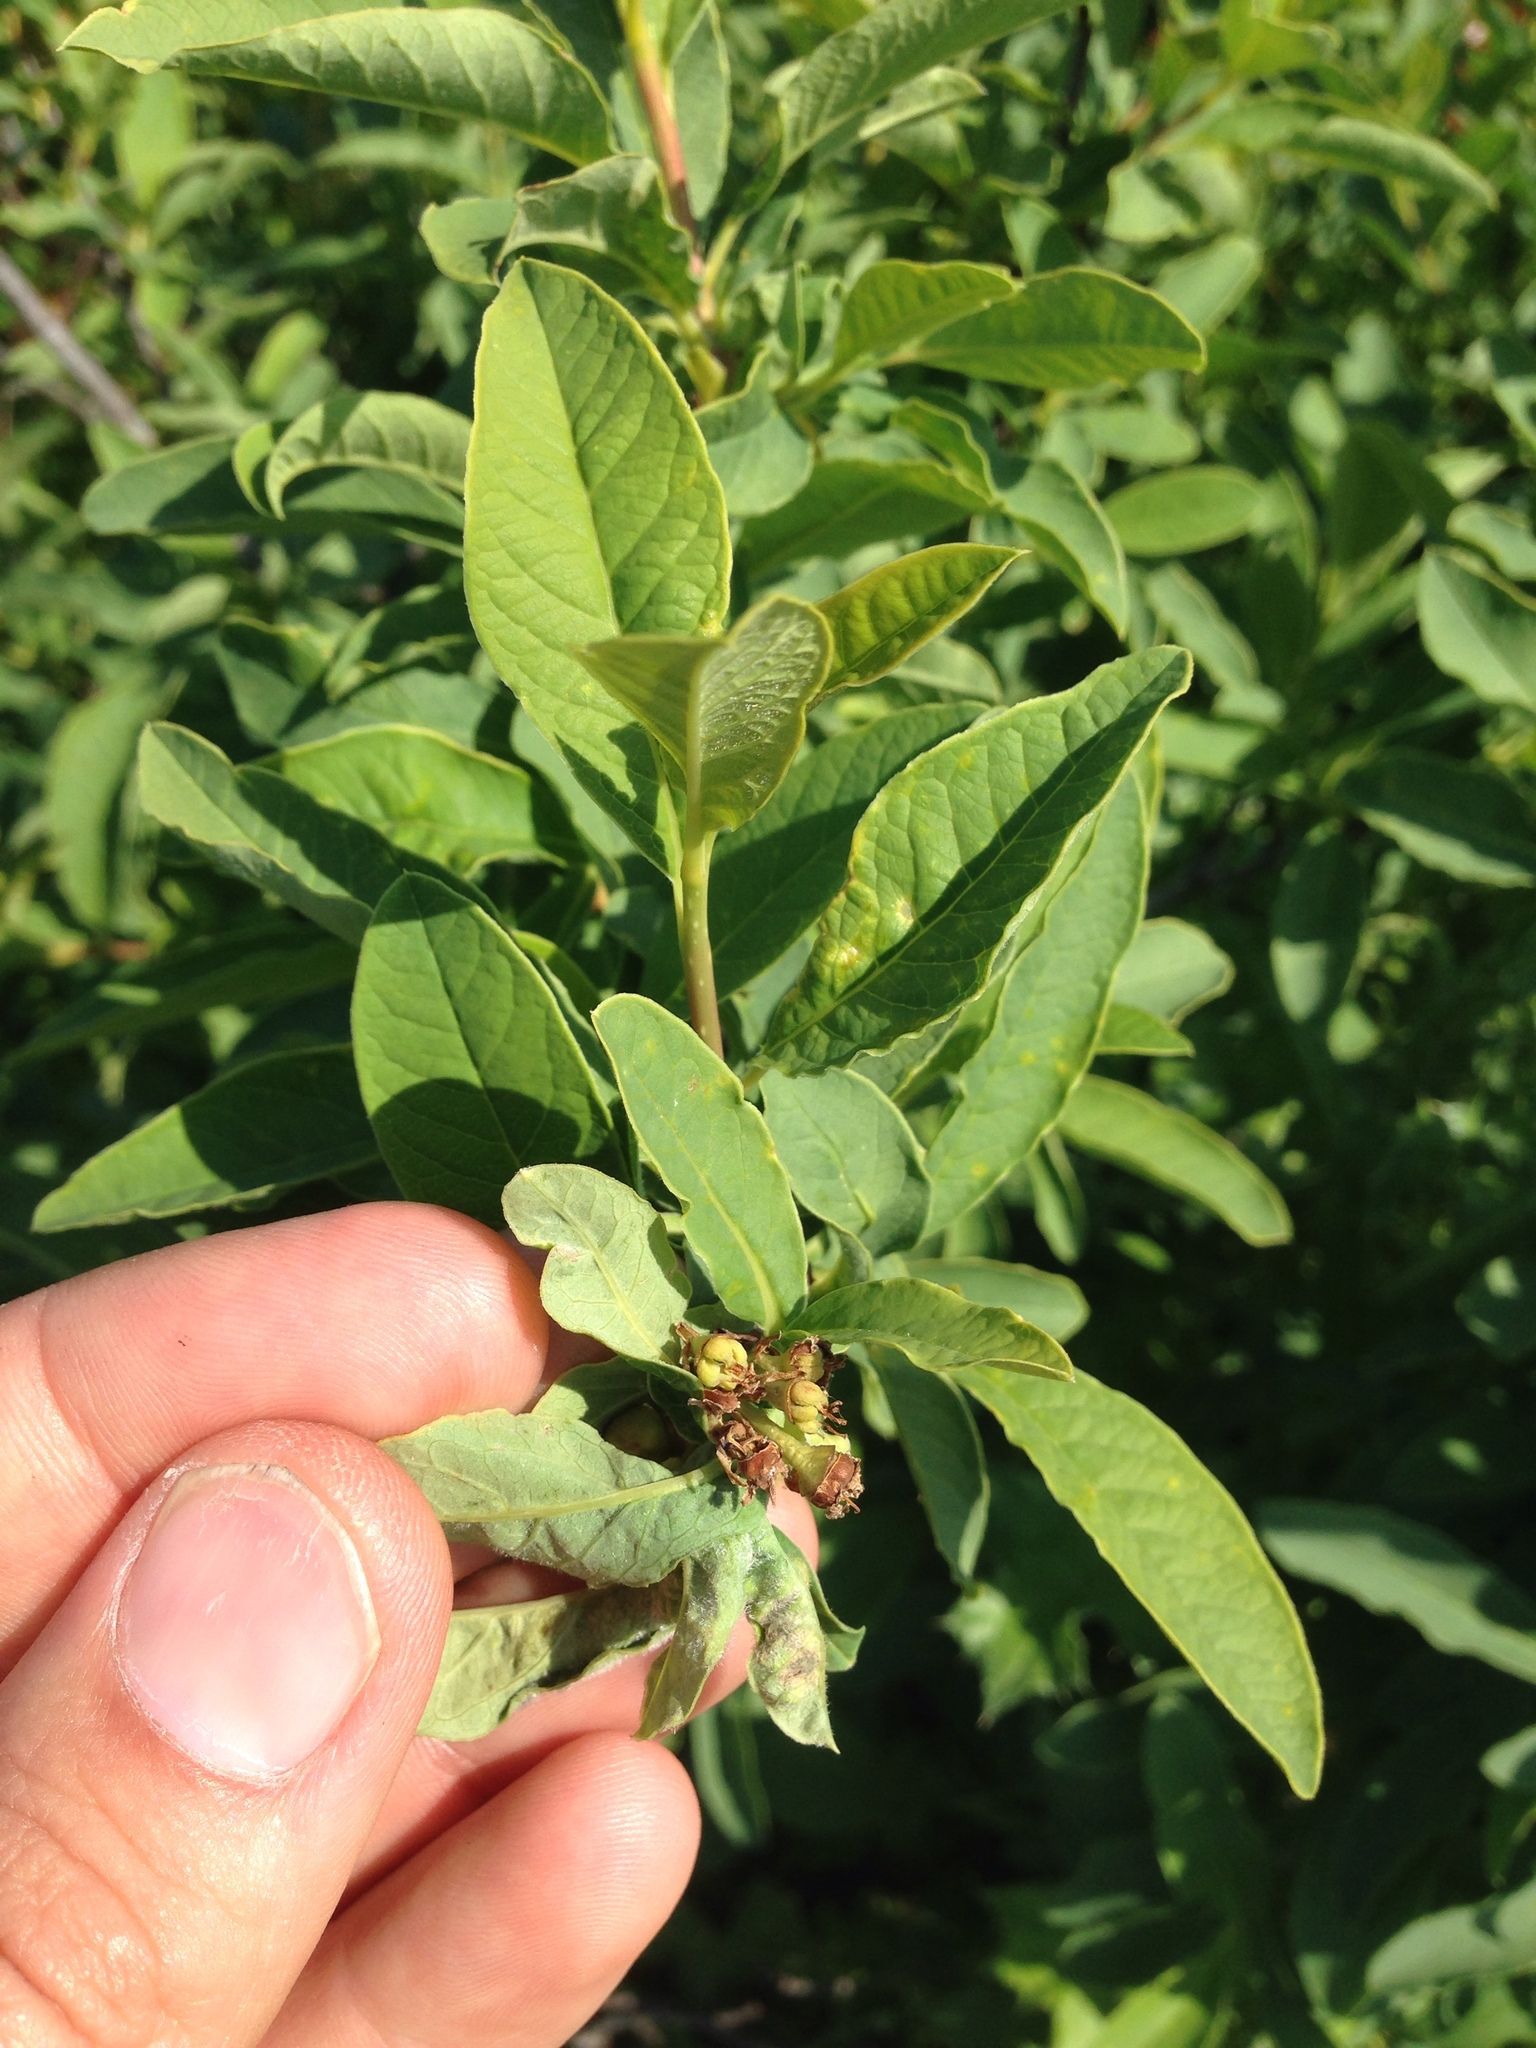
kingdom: Plantae
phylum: Tracheophyta
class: Magnoliopsida
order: Rosales
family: Rosaceae
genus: Oemleria
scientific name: Oemleria cerasiformis
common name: Osoberry
